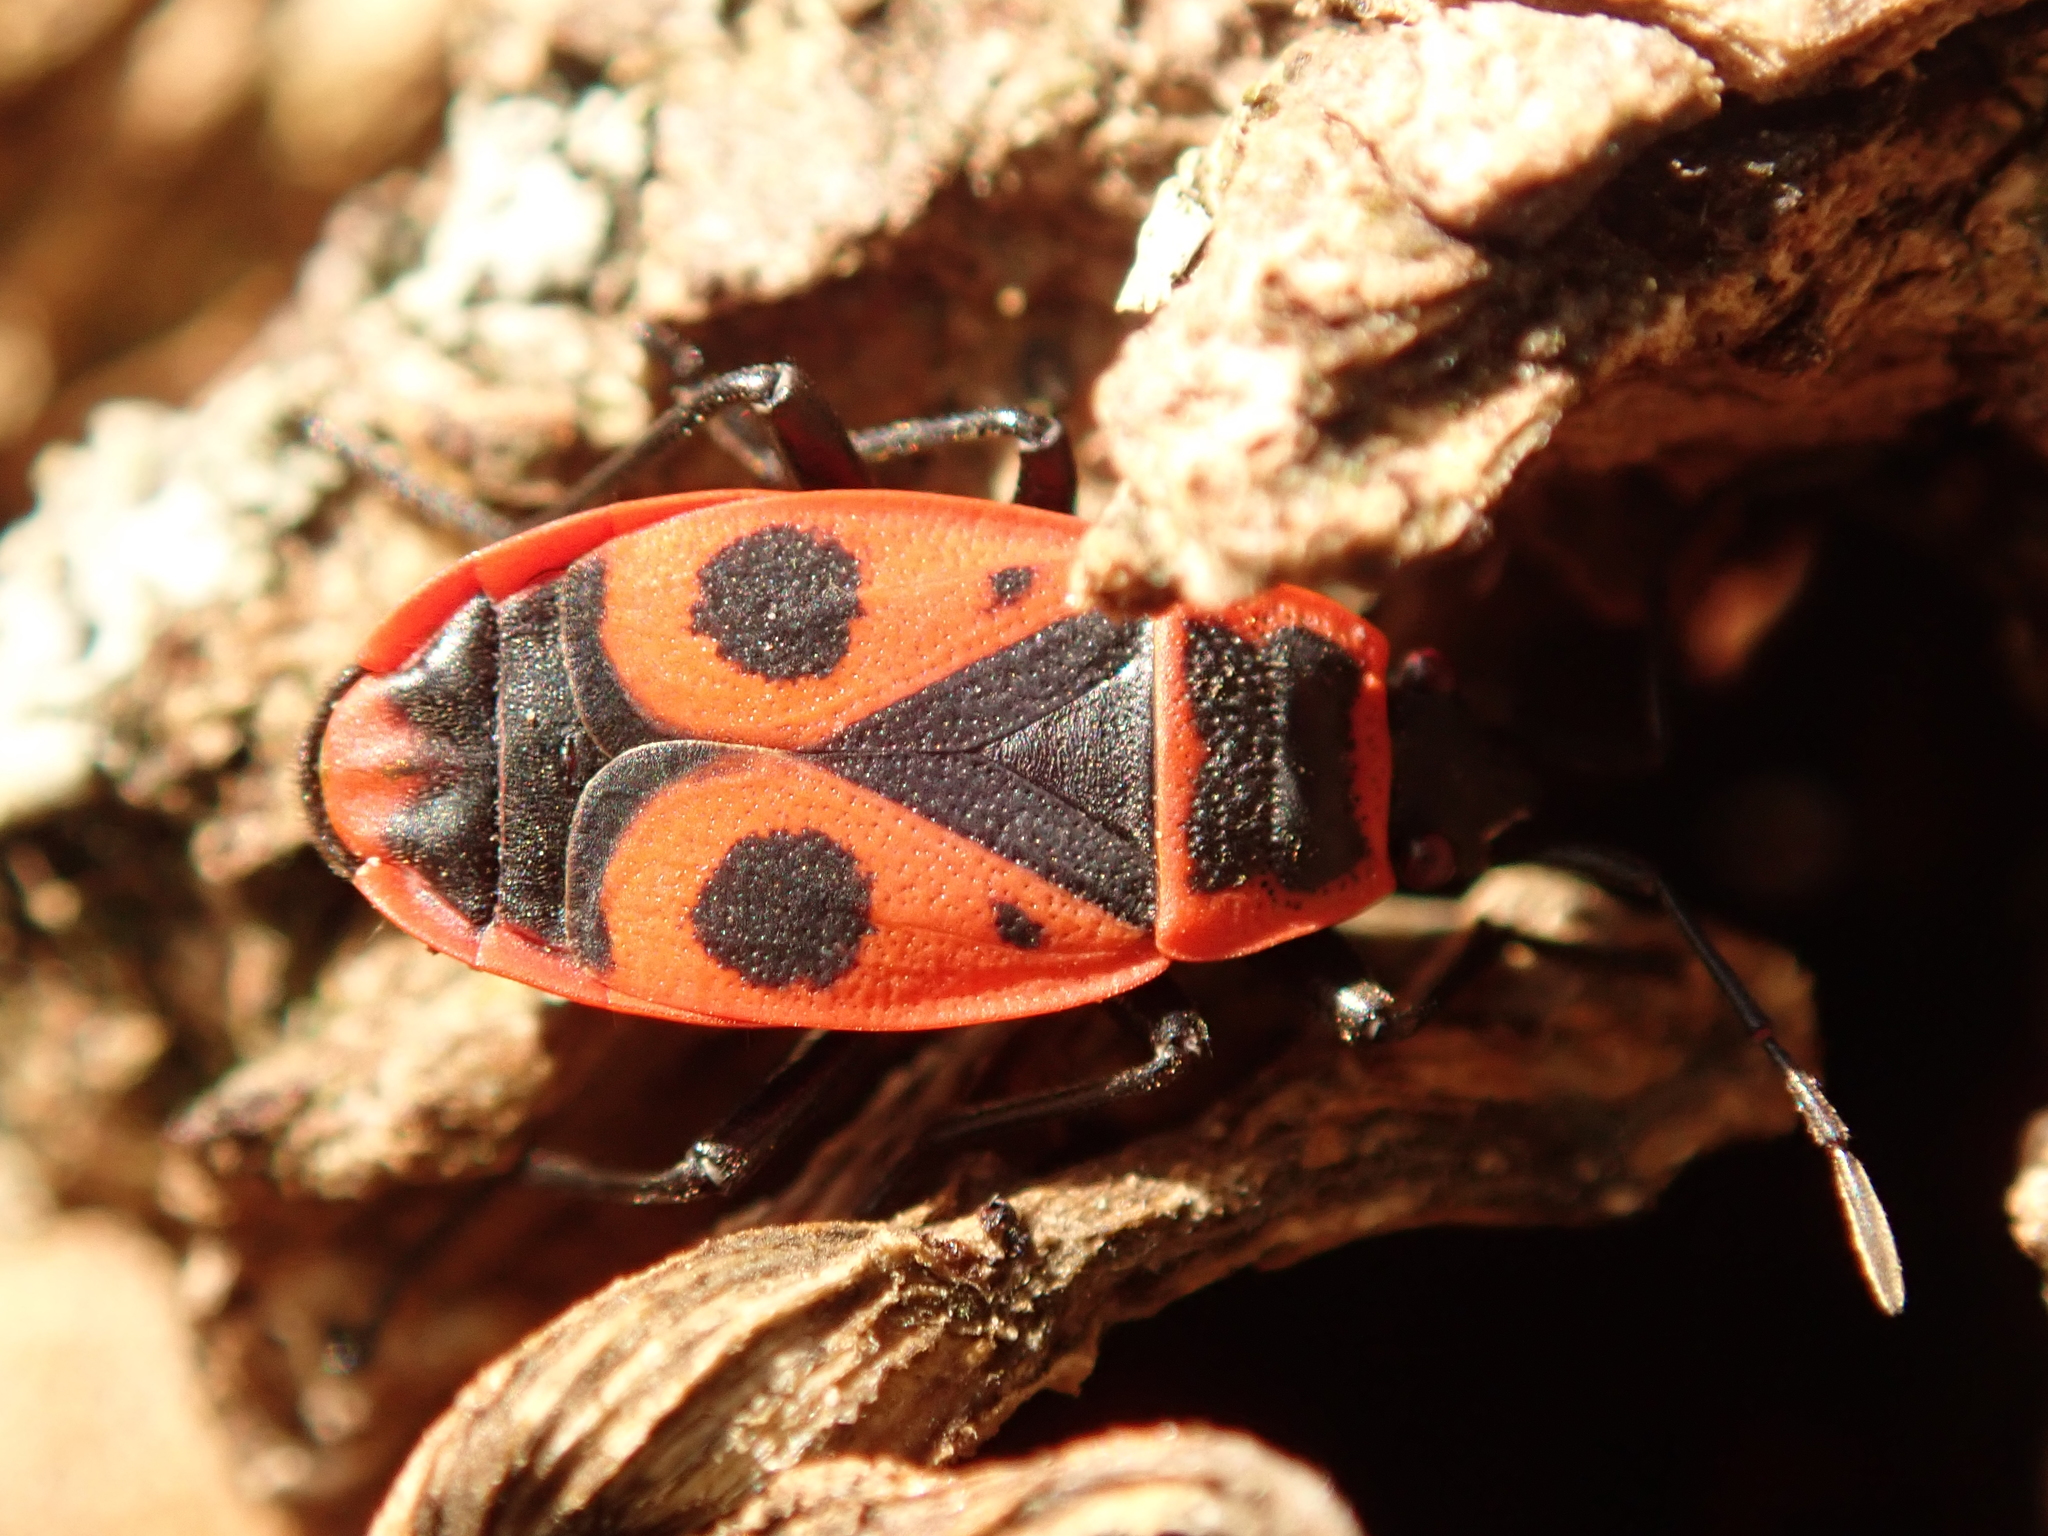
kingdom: Animalia
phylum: Arthropoda
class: Insecta
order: Hemiptera
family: Pyrrhocoridae
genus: Pyrrhocoris
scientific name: Pyrrhocoris apterus
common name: Firebug
